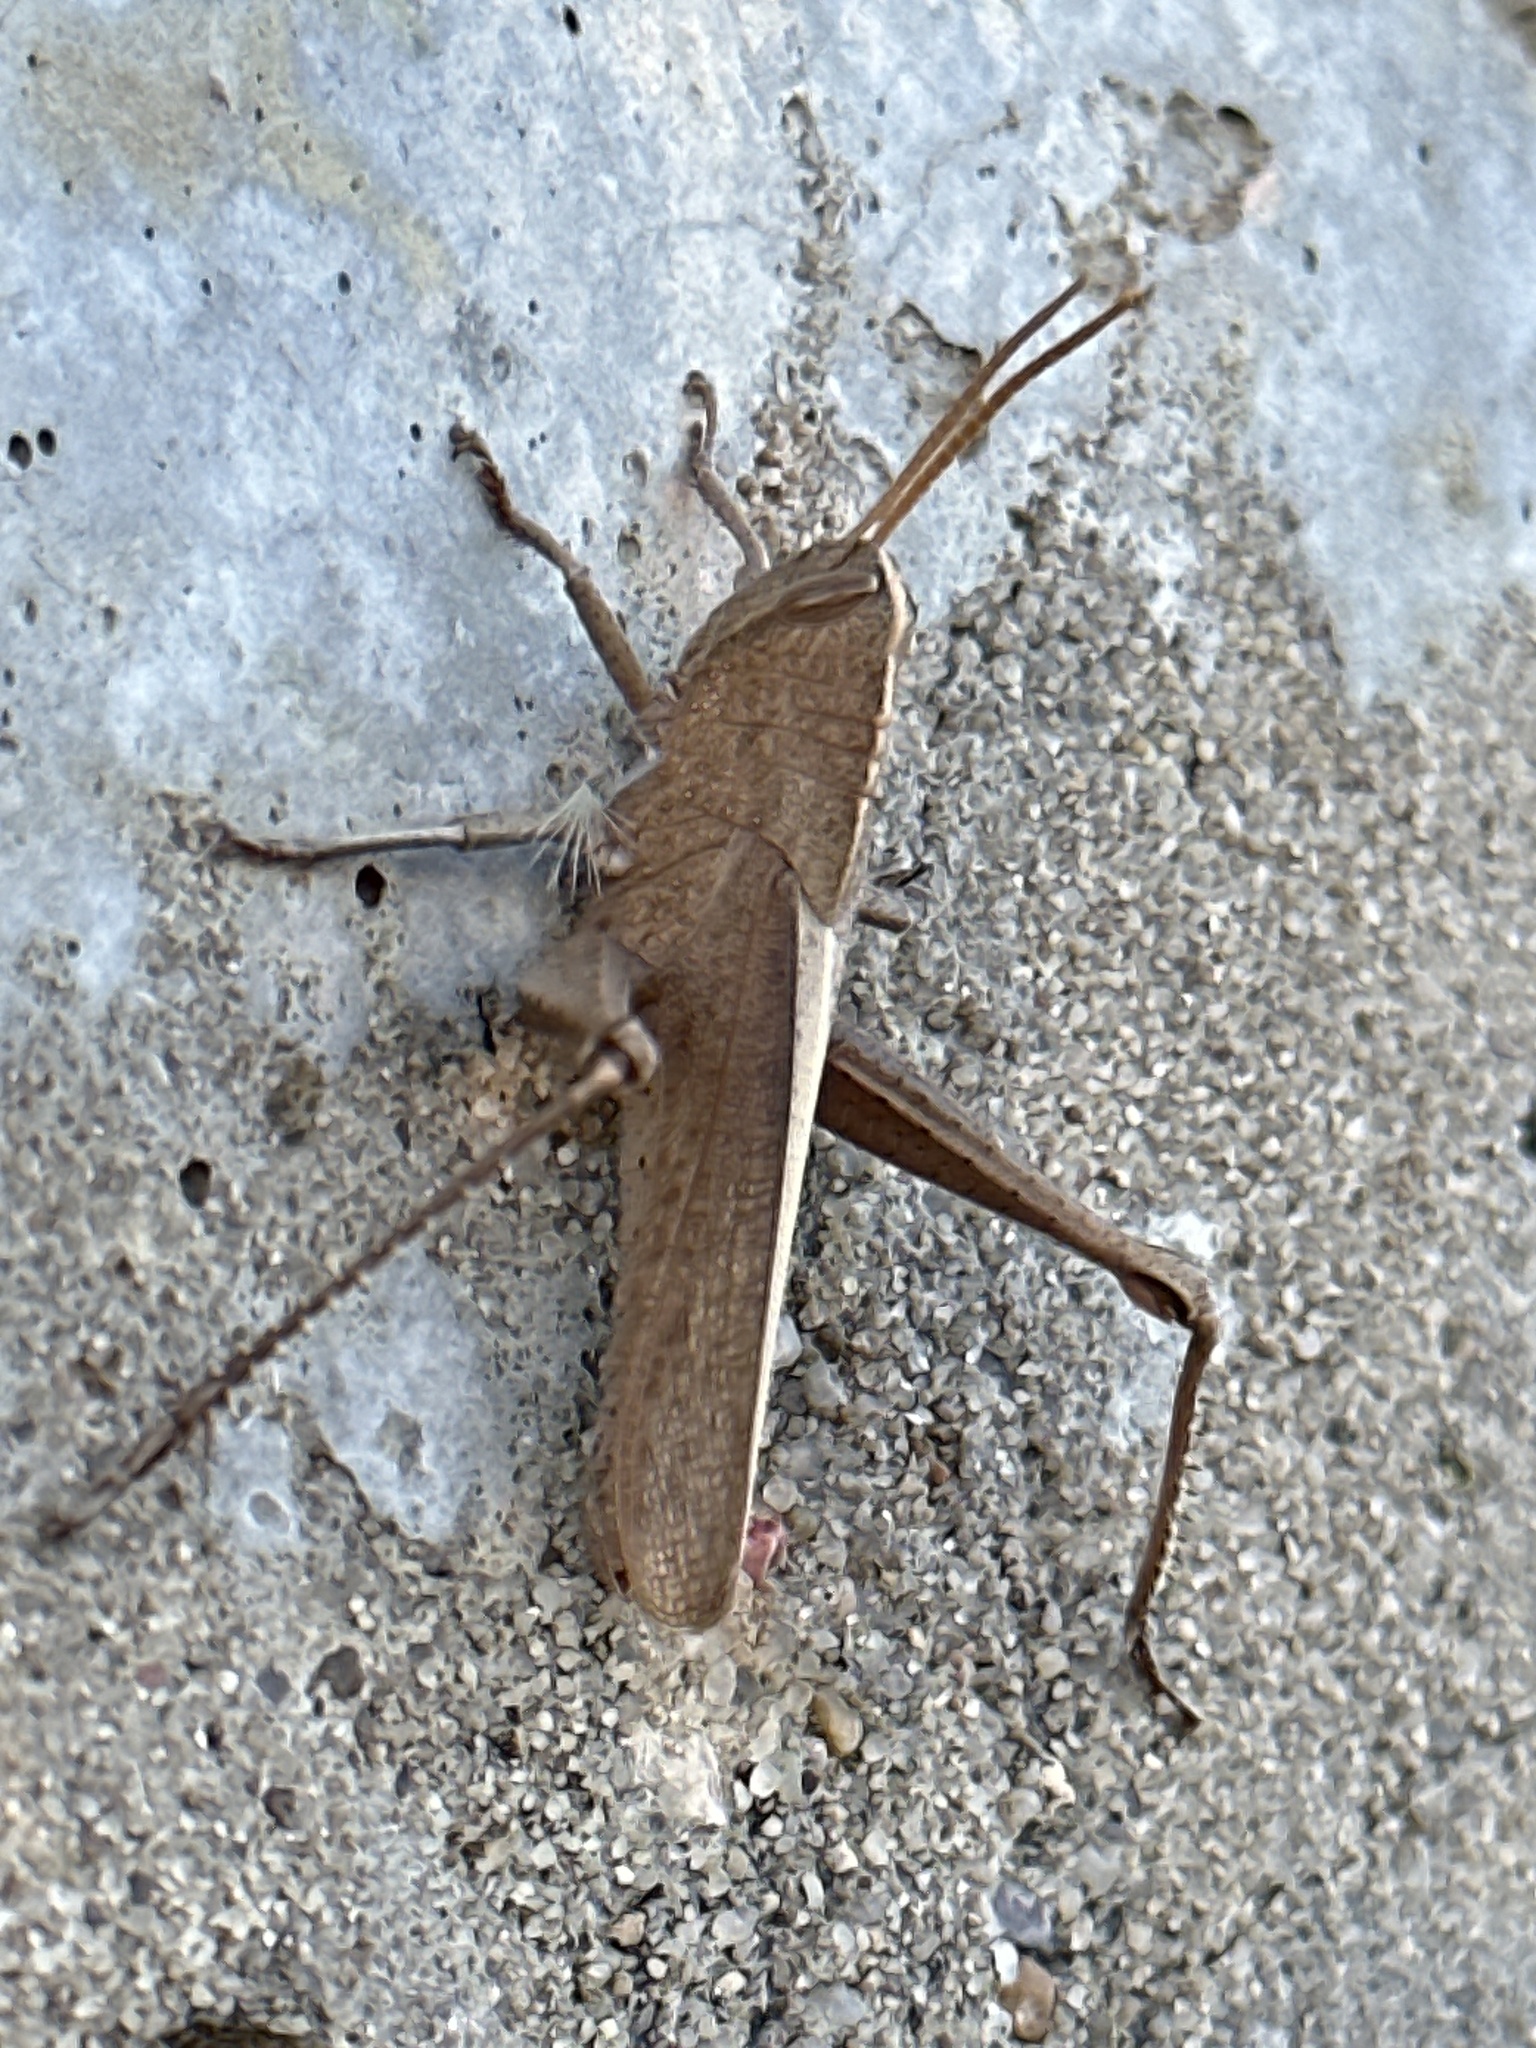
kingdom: Animalia
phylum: Arthropoda
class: Insecta
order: Orthoptera
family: Acrididae
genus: Schistocerca
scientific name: Schistocerca damnifica
